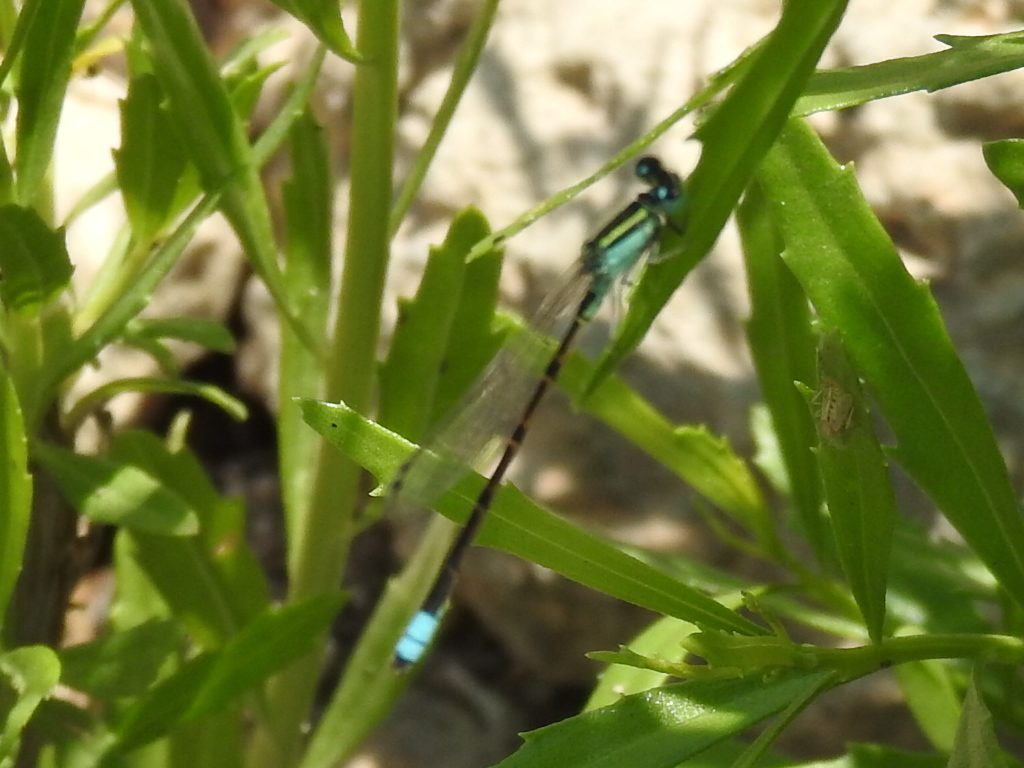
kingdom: Animalia
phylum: Arthropoda
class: Insecta
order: Odonata
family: Coenagrionidae
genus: Ischnura
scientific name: Ischnura ramburii
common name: Rambur's forktail
